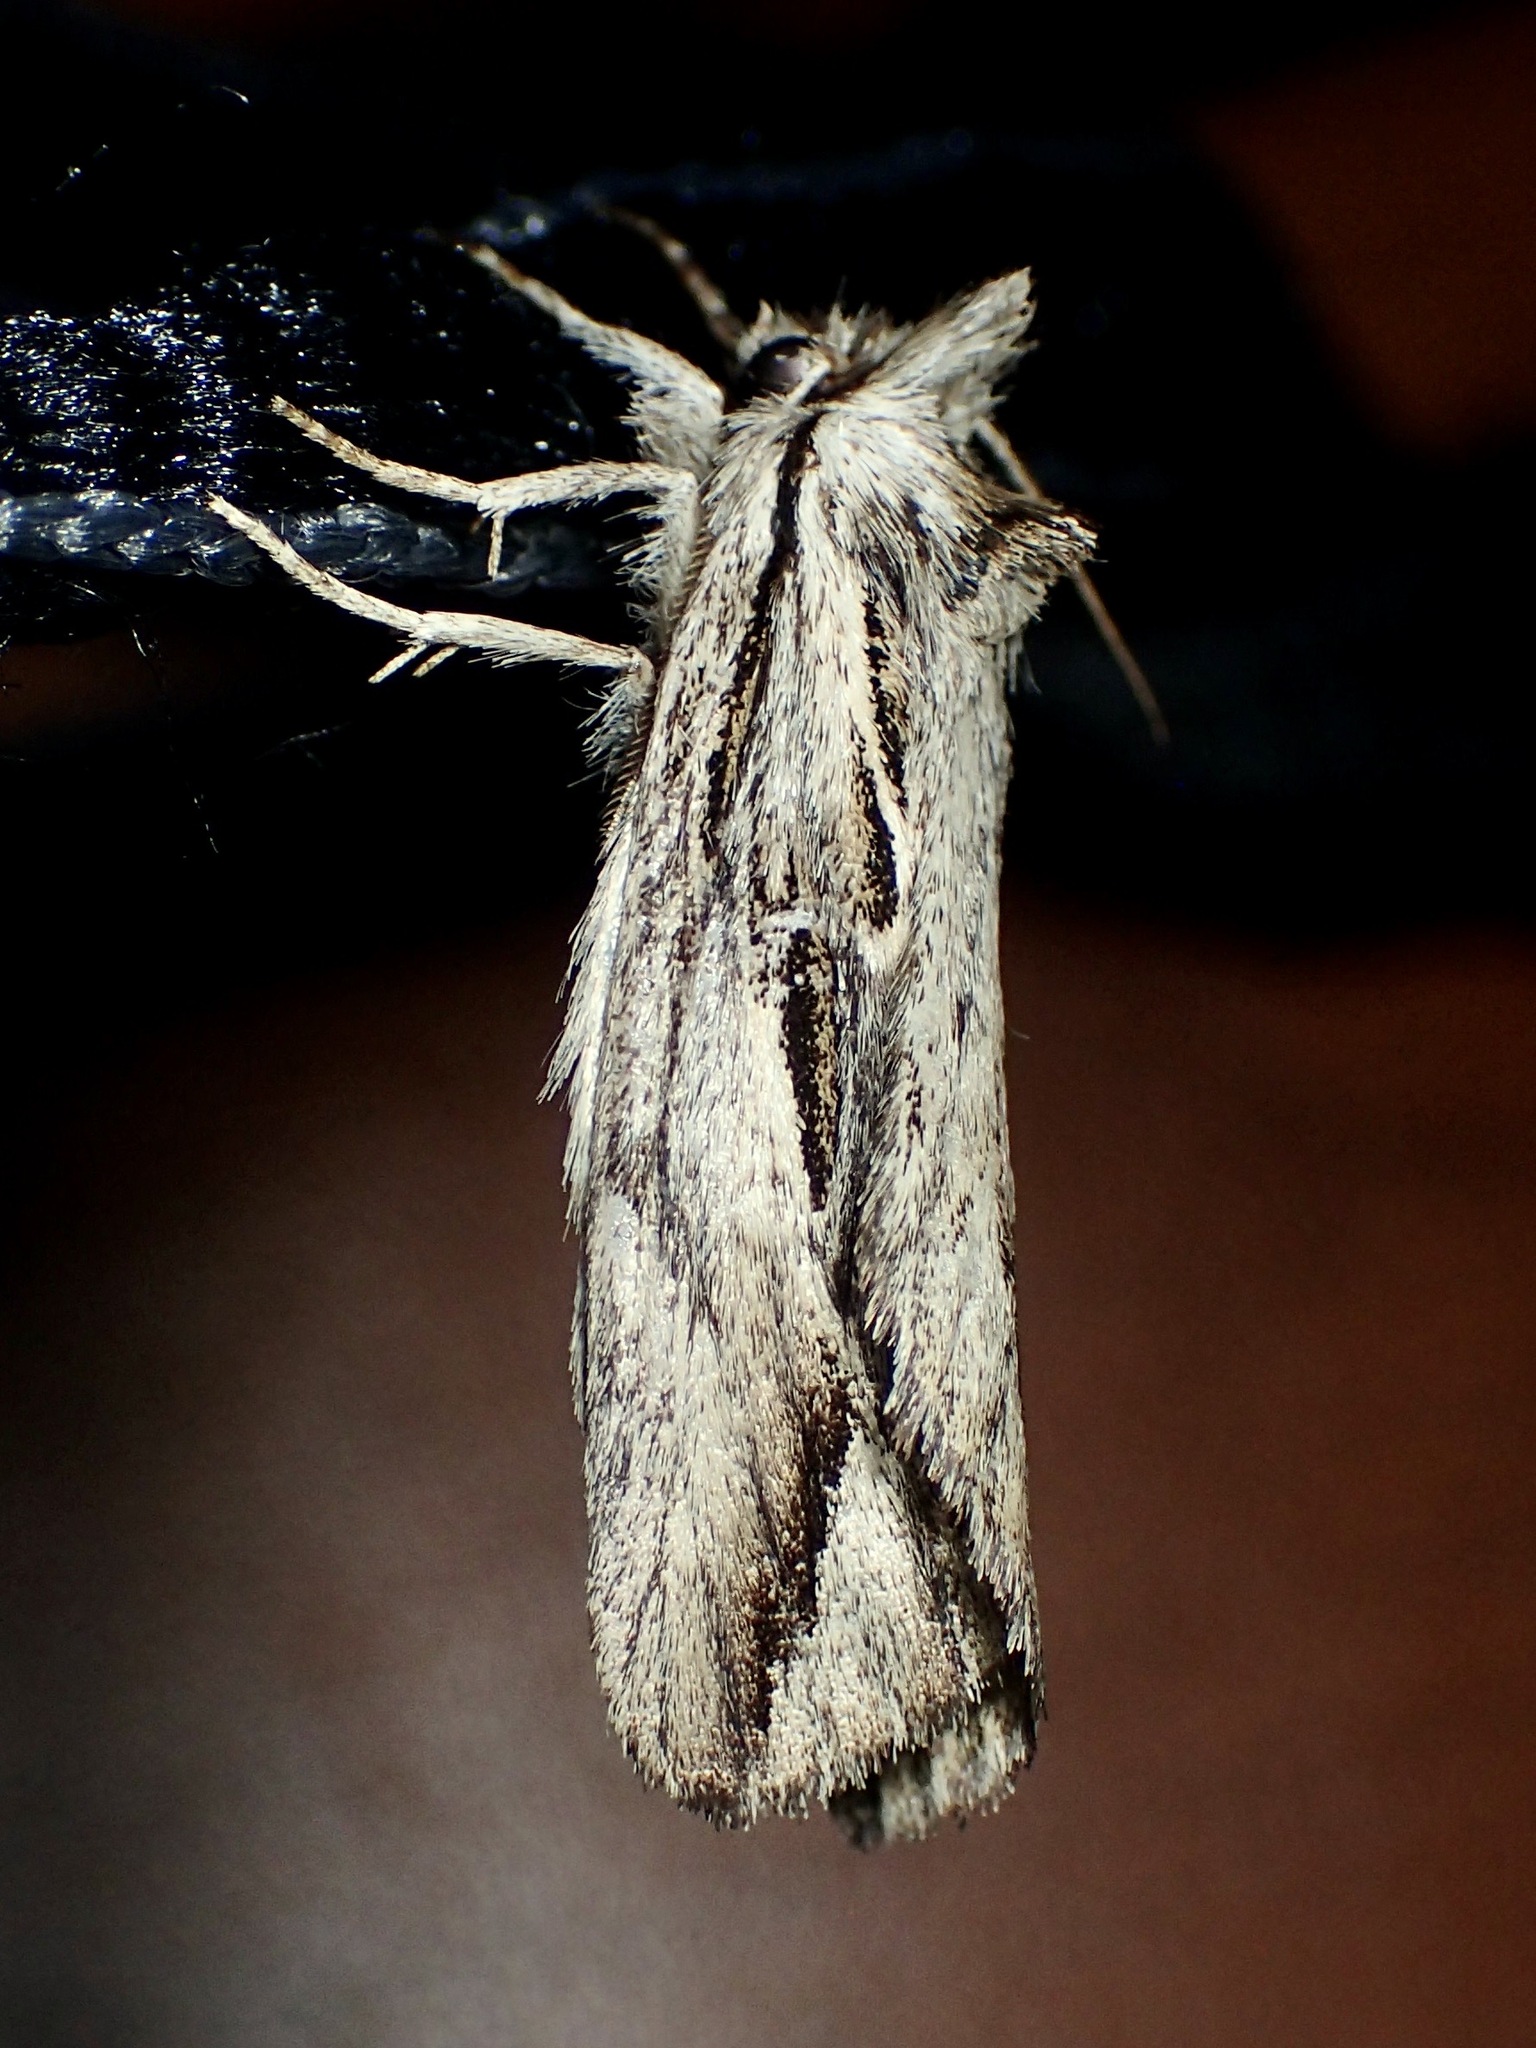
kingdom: Animalia
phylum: Arthropoda
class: Insecta
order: Lepidoptera
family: Notodontidae
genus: Ecnomodes
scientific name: Ecnomodes sagittaria
